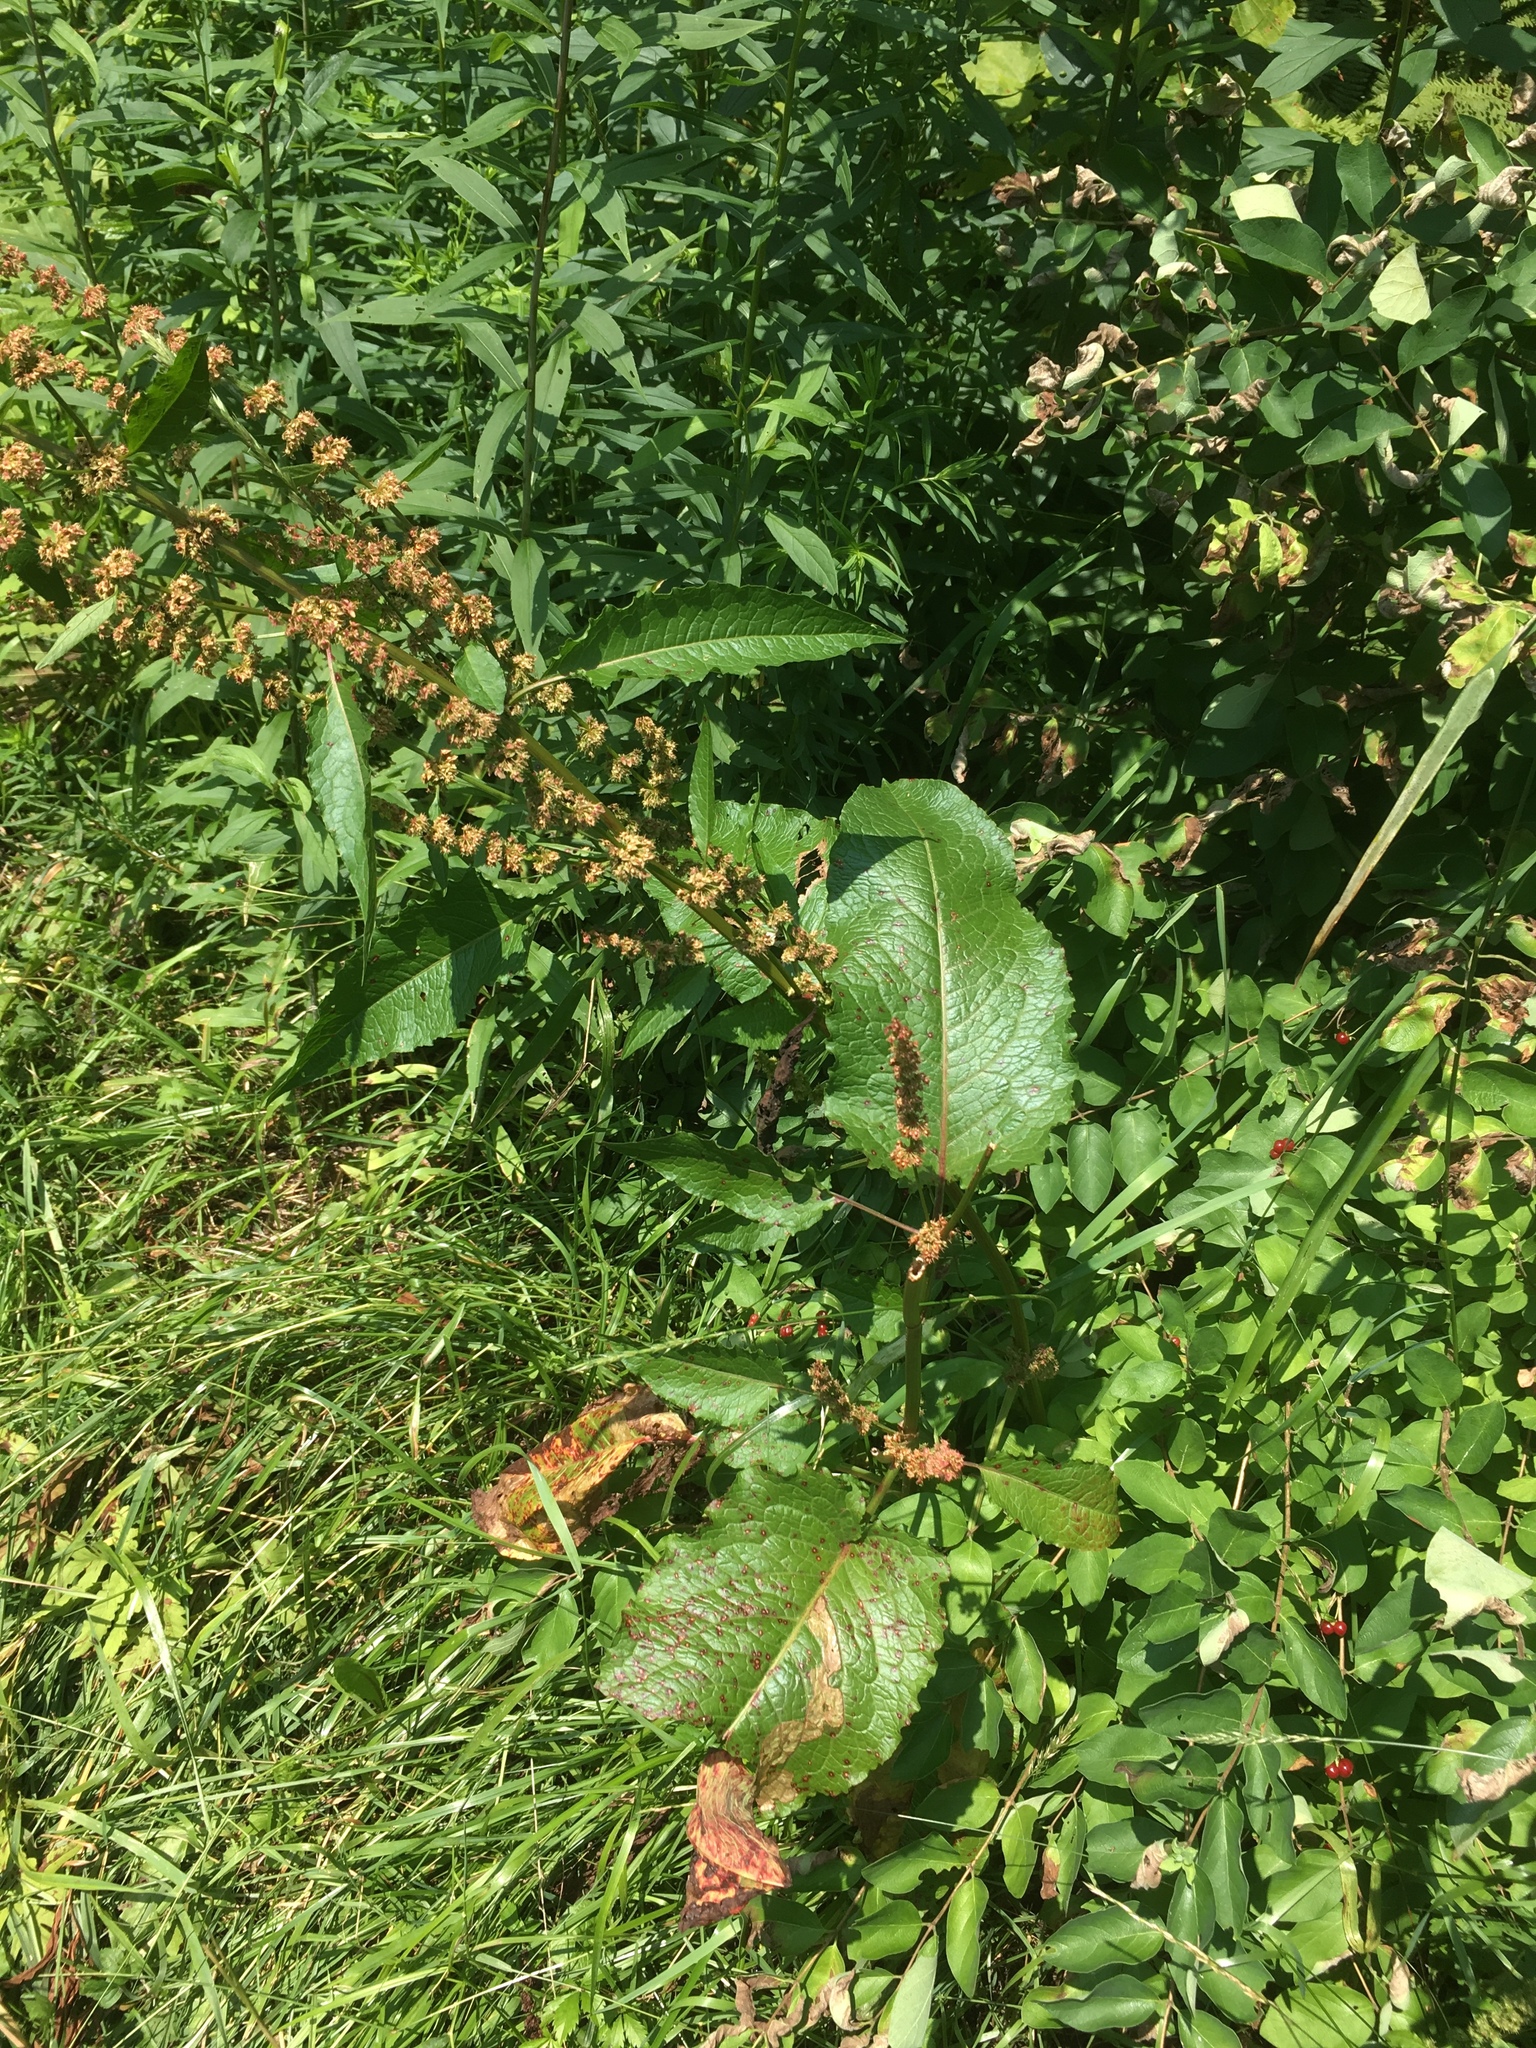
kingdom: Plantae
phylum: Tracheophyta
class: Magnoliopsida
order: Caryophyllales
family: Polygonaceae
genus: Rumex
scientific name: Rumex obtusifolius
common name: Bitter dock
